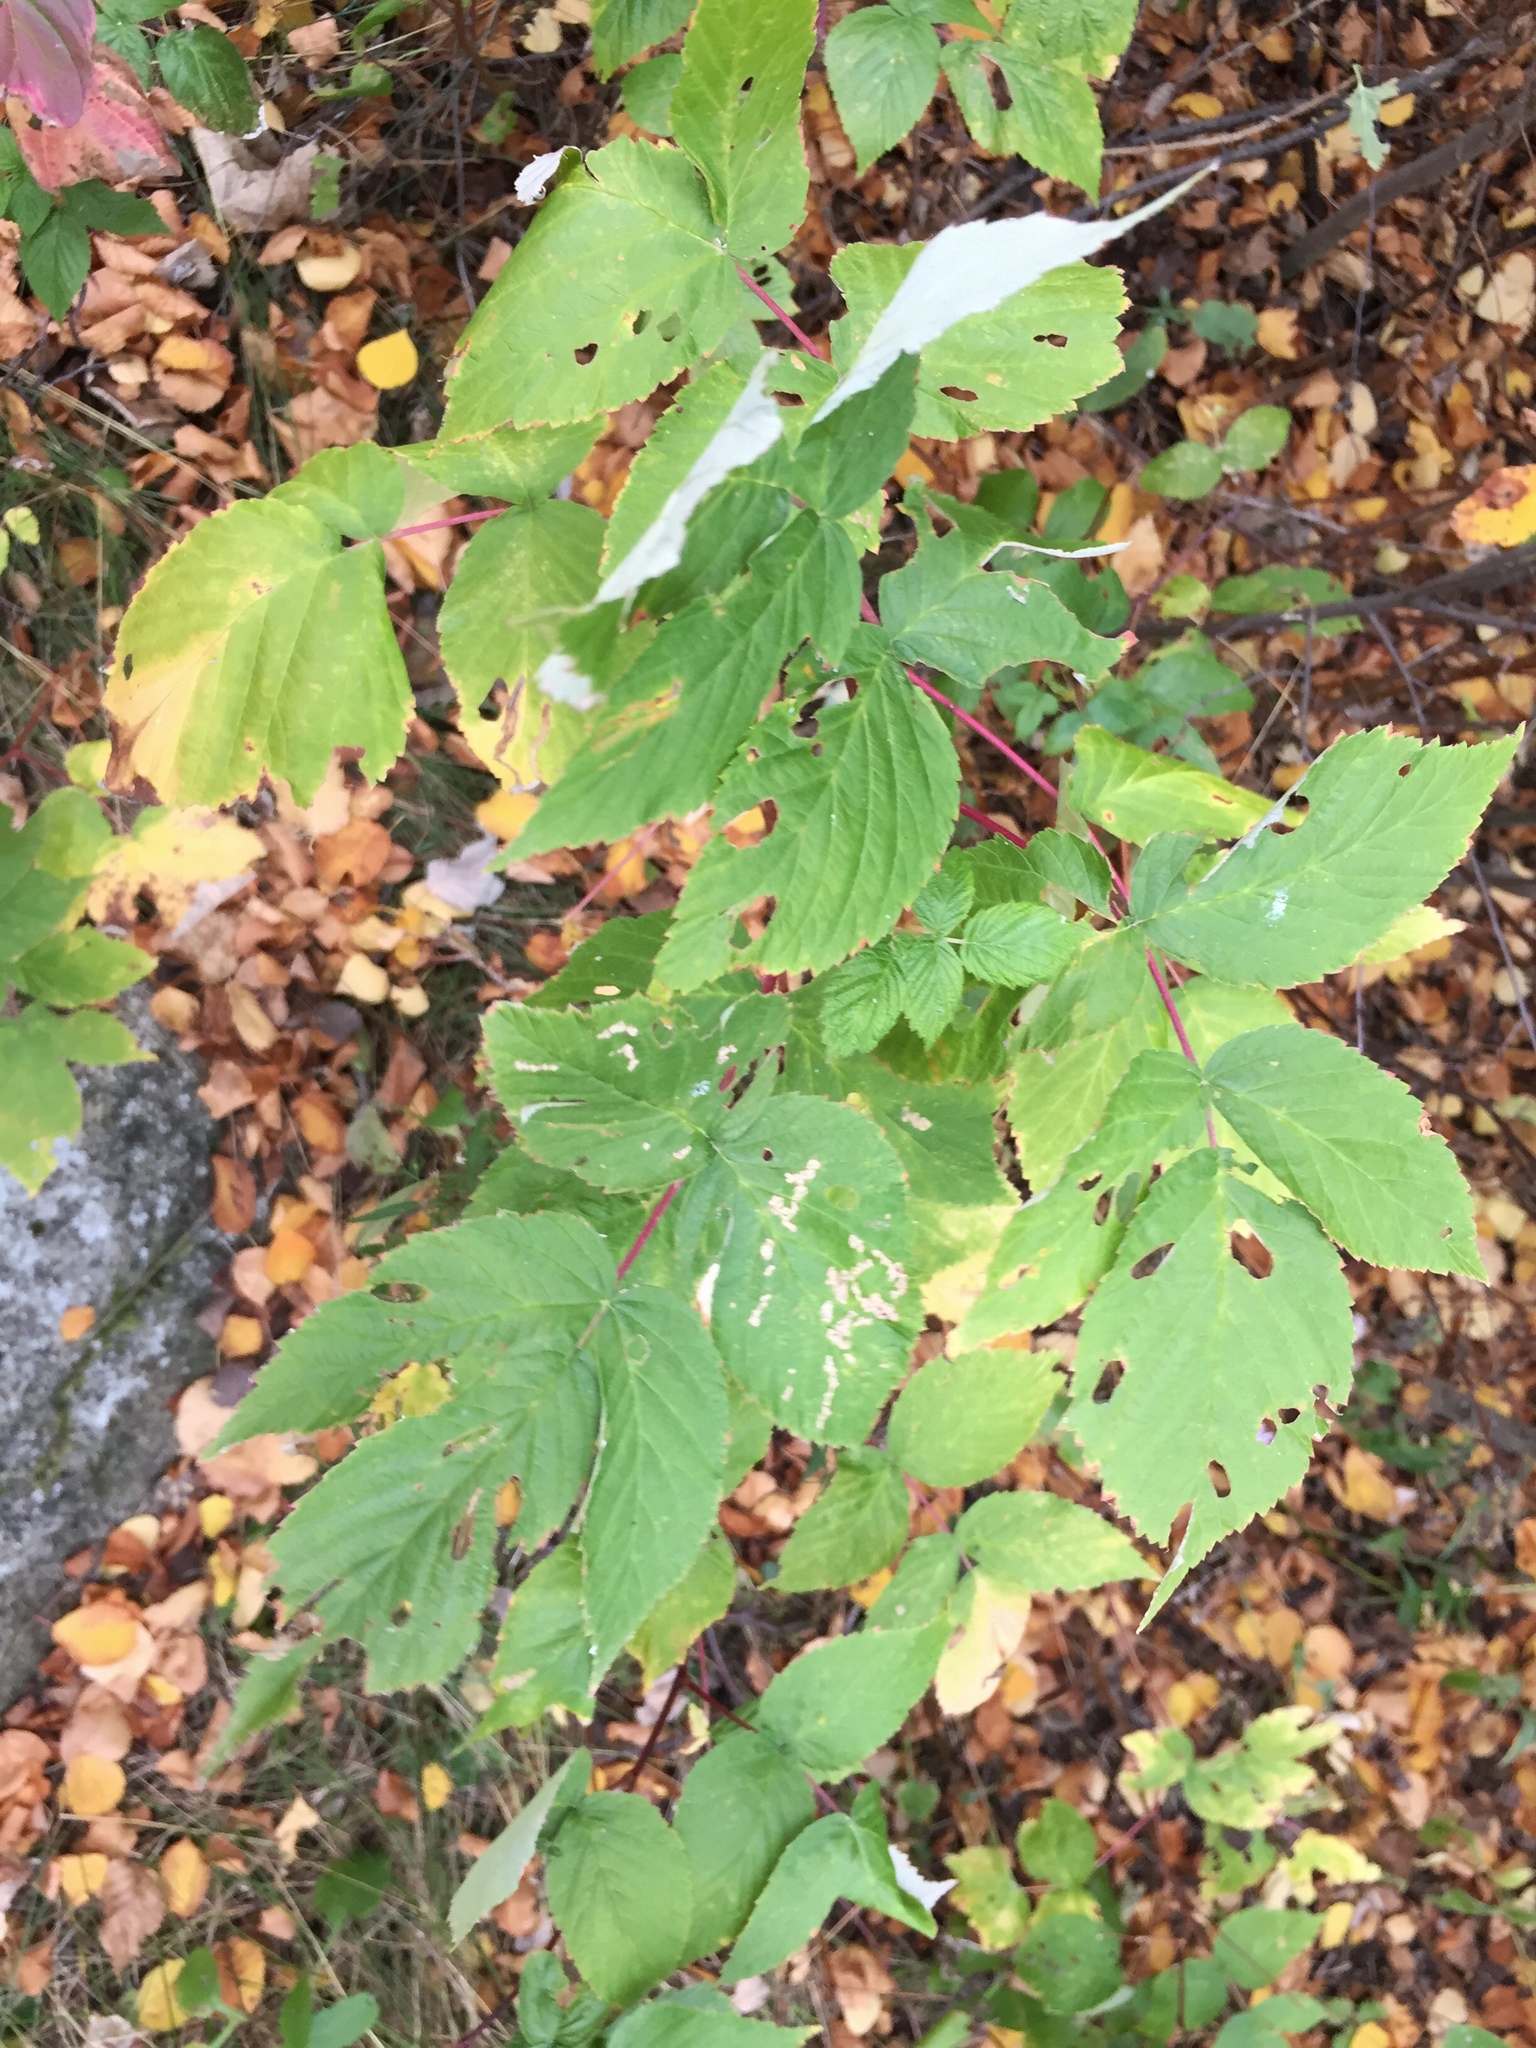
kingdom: Plantae
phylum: Tracheophyta
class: Magnoliopsida
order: Rosales
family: Rosaceae
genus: Rubus
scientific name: Rubus idaeus
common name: Raspberry
